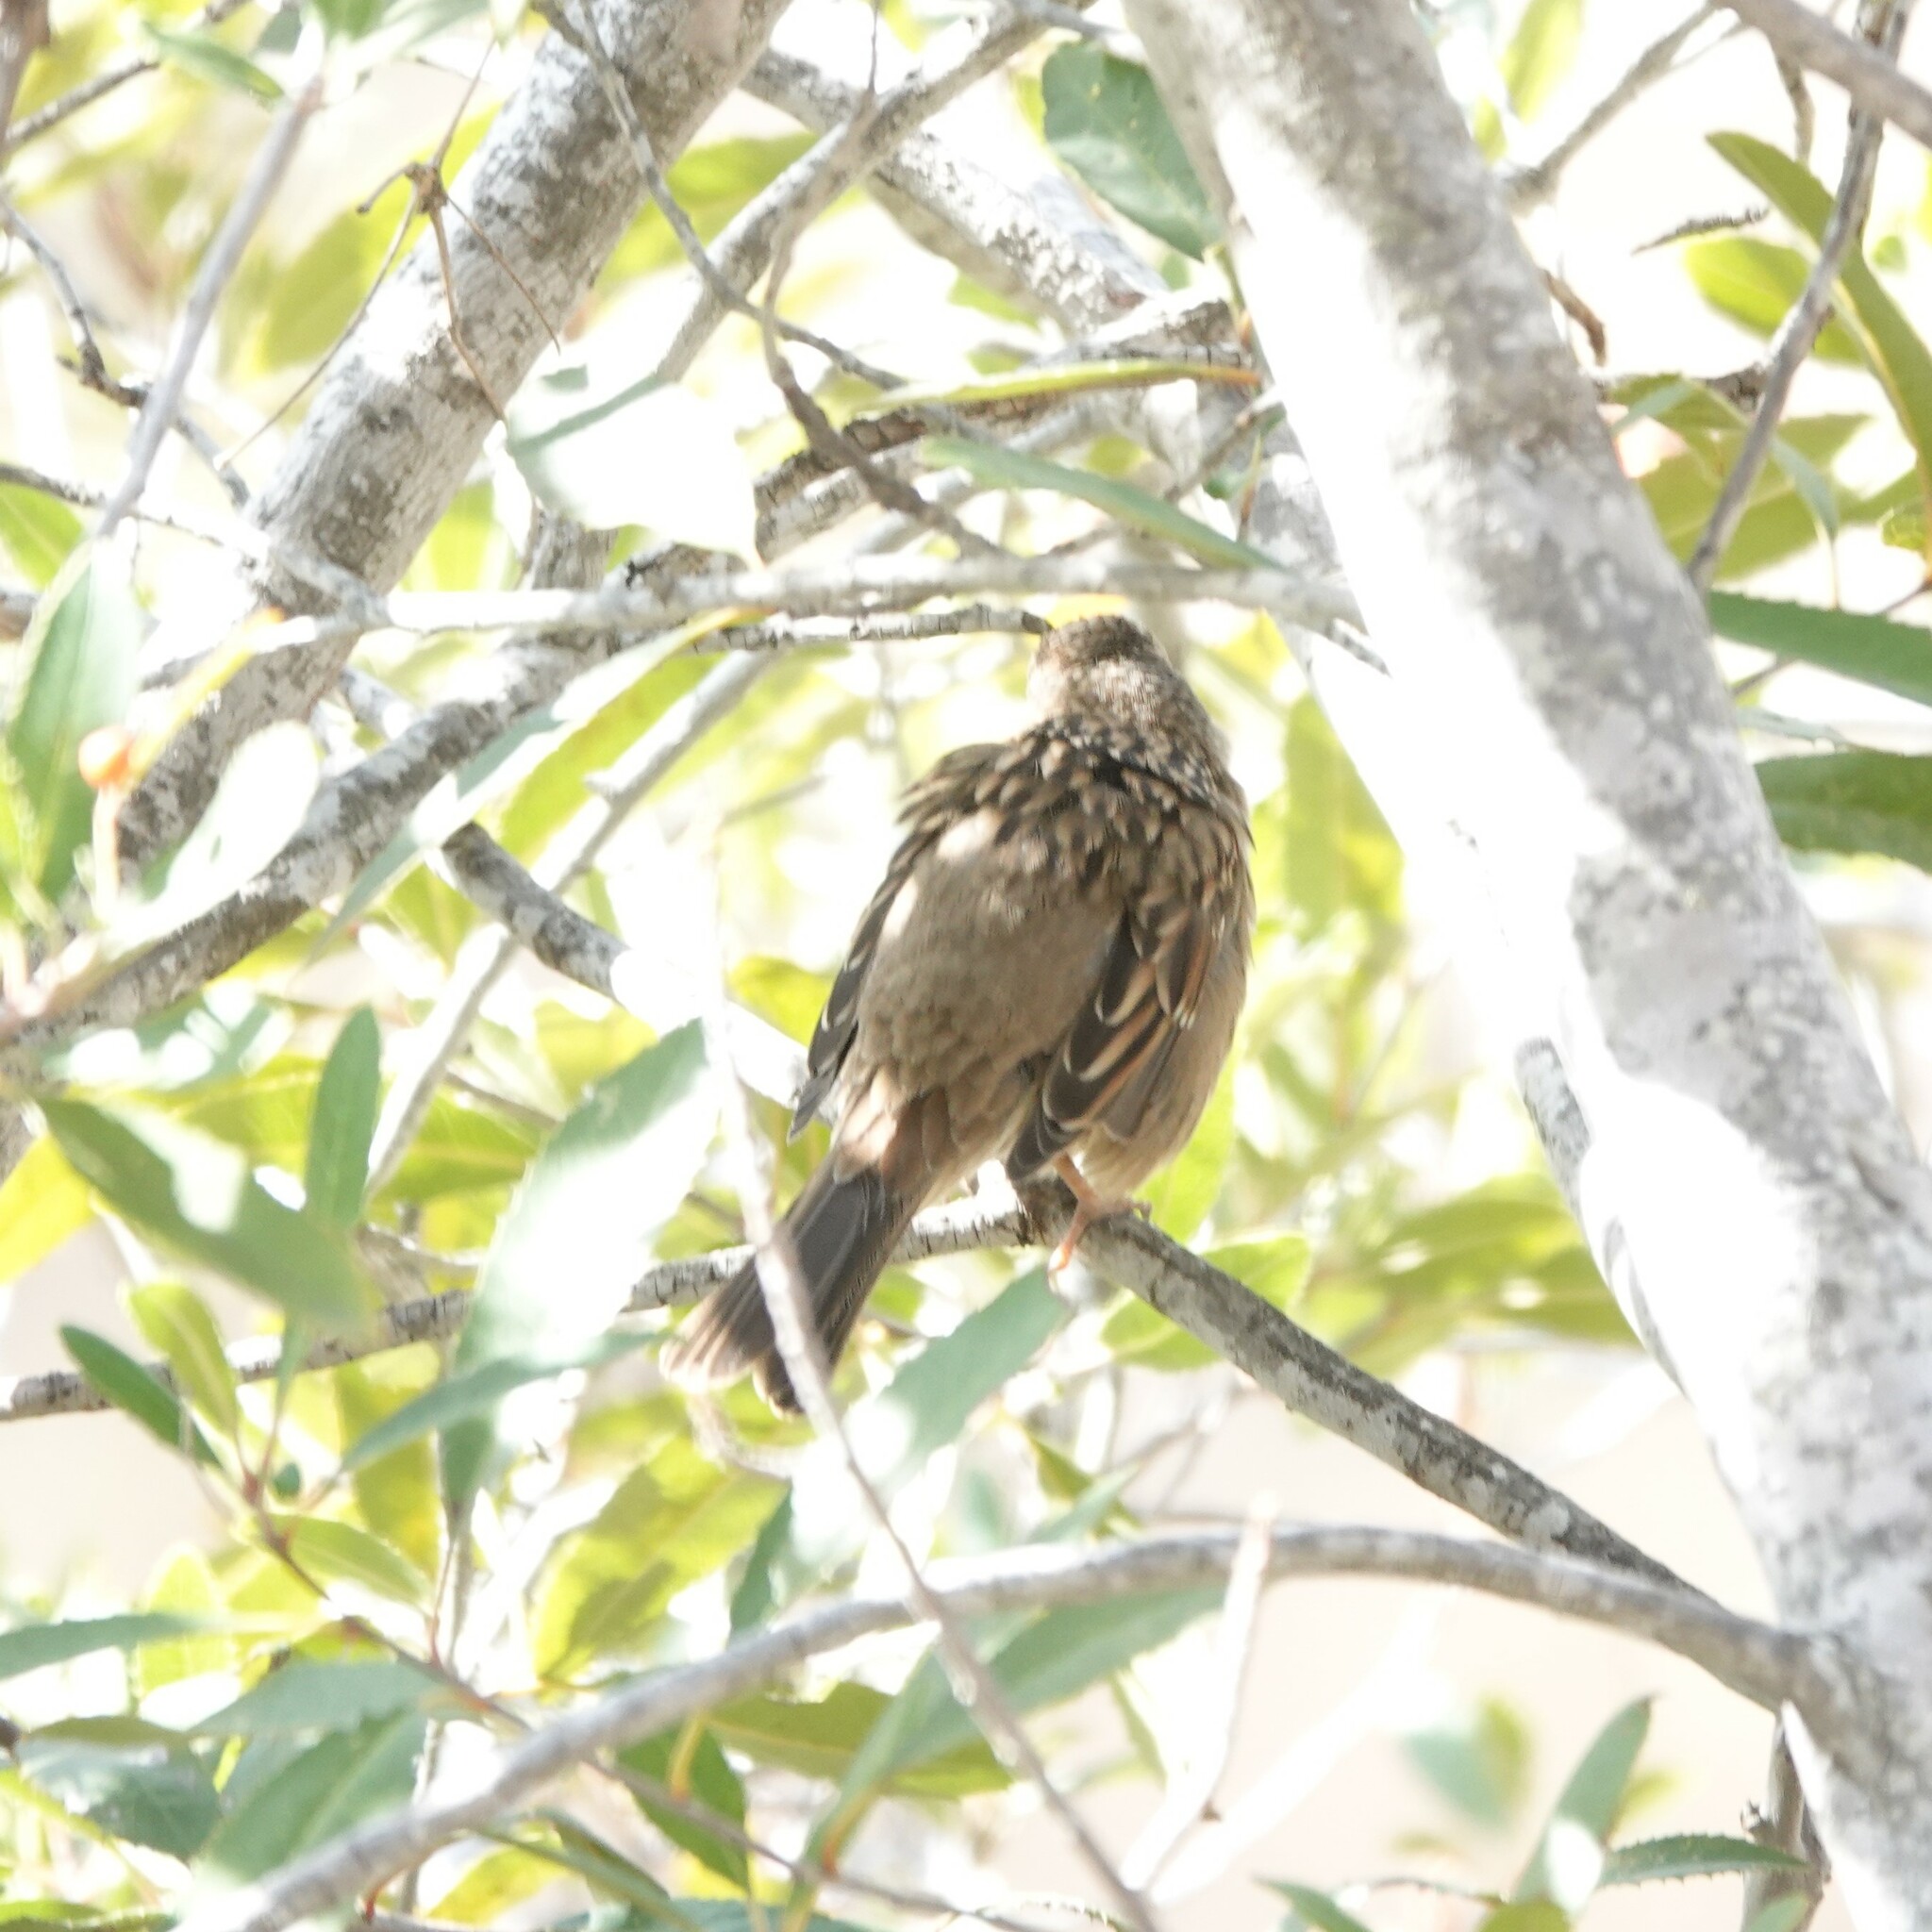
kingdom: Animalia
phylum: Chordata
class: Aves
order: Passeriformes
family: Passerellidae
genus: Zonotrichia
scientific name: Zonotrichia atricapilla
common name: Golden-crowned sparrow
